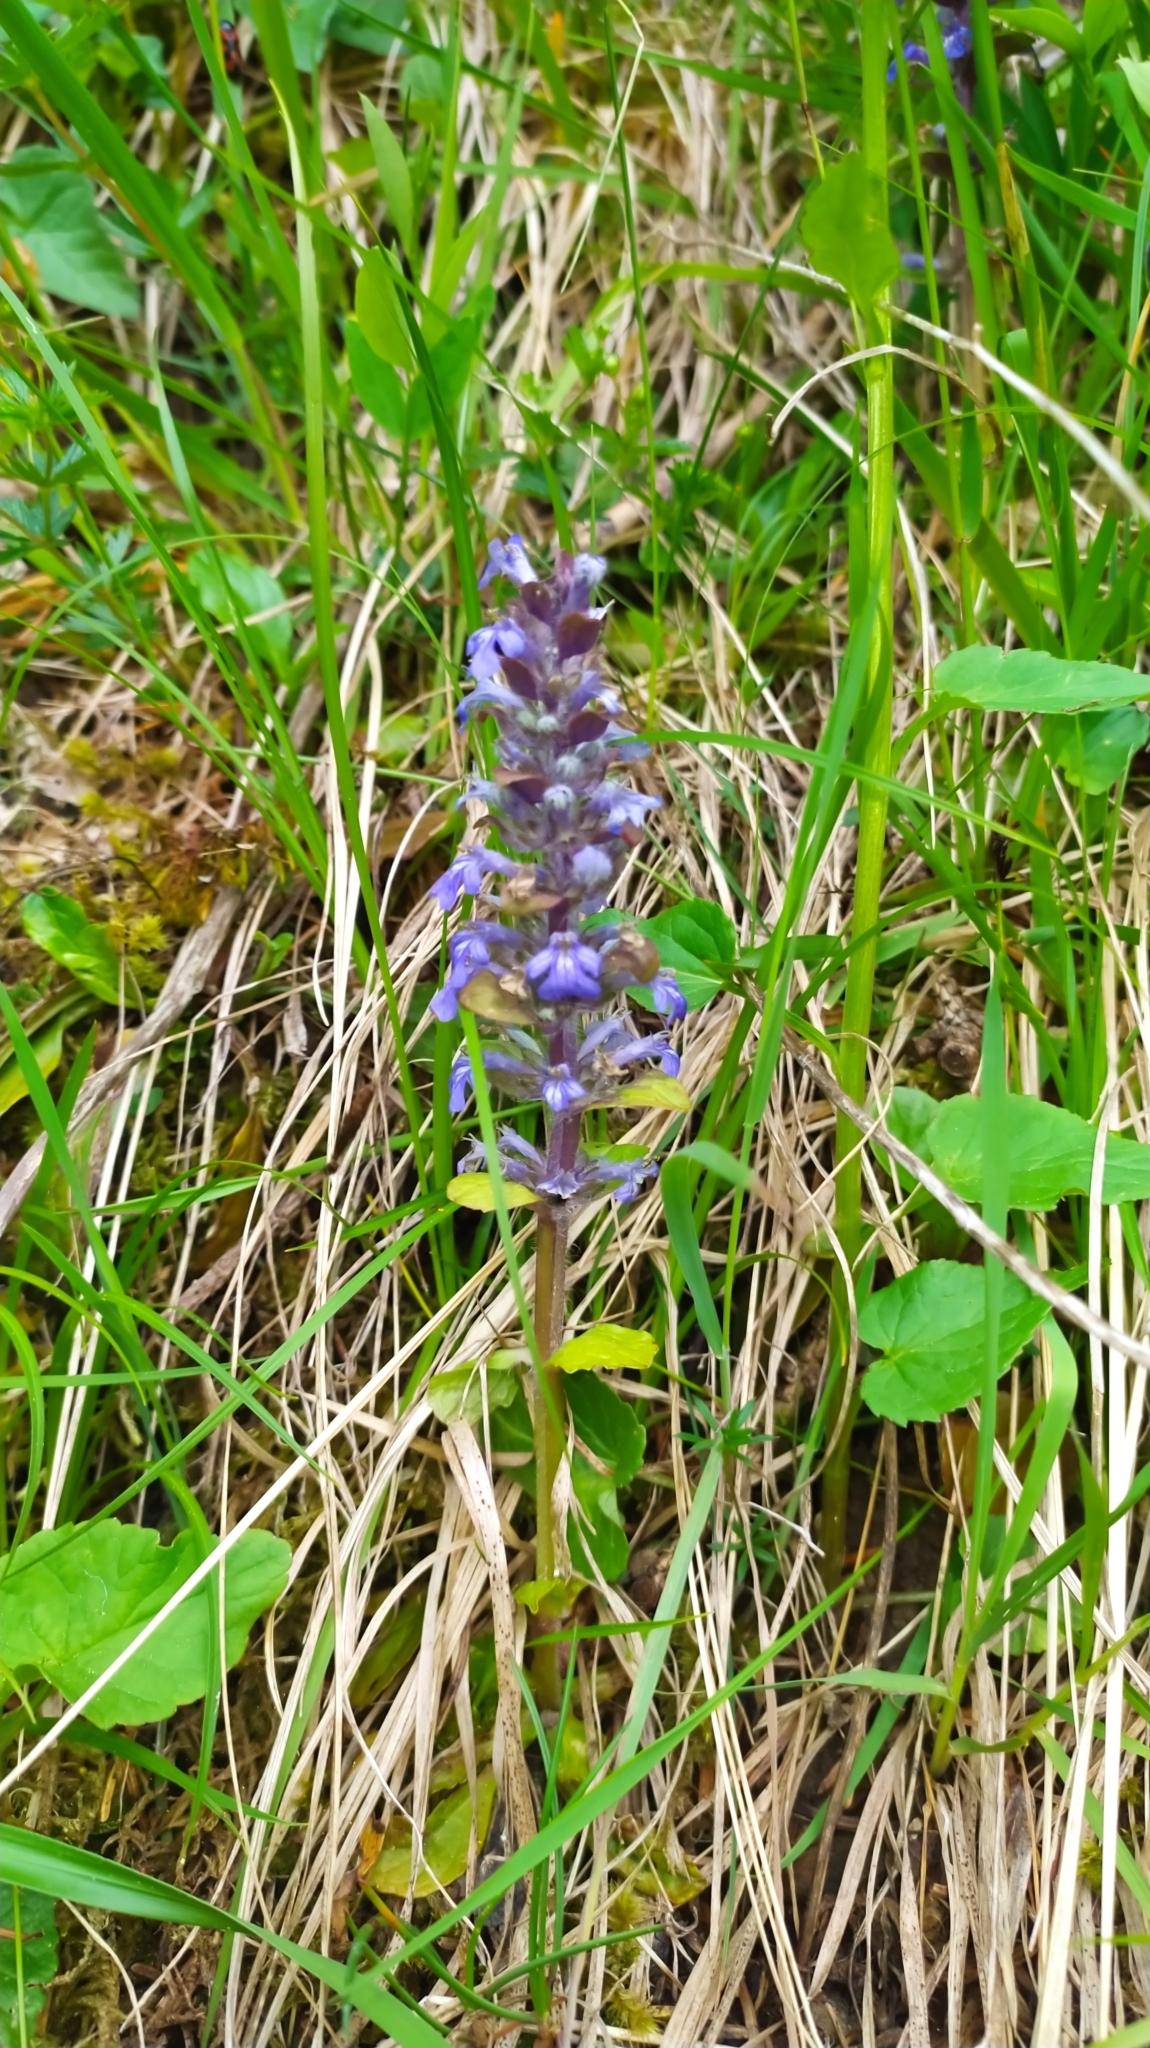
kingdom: Plantae
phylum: Tracheophyta
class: Magnoliopsida
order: Lamiales
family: Lamiaceae
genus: Ajuga
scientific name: Ajuga reptans
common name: Bugle
